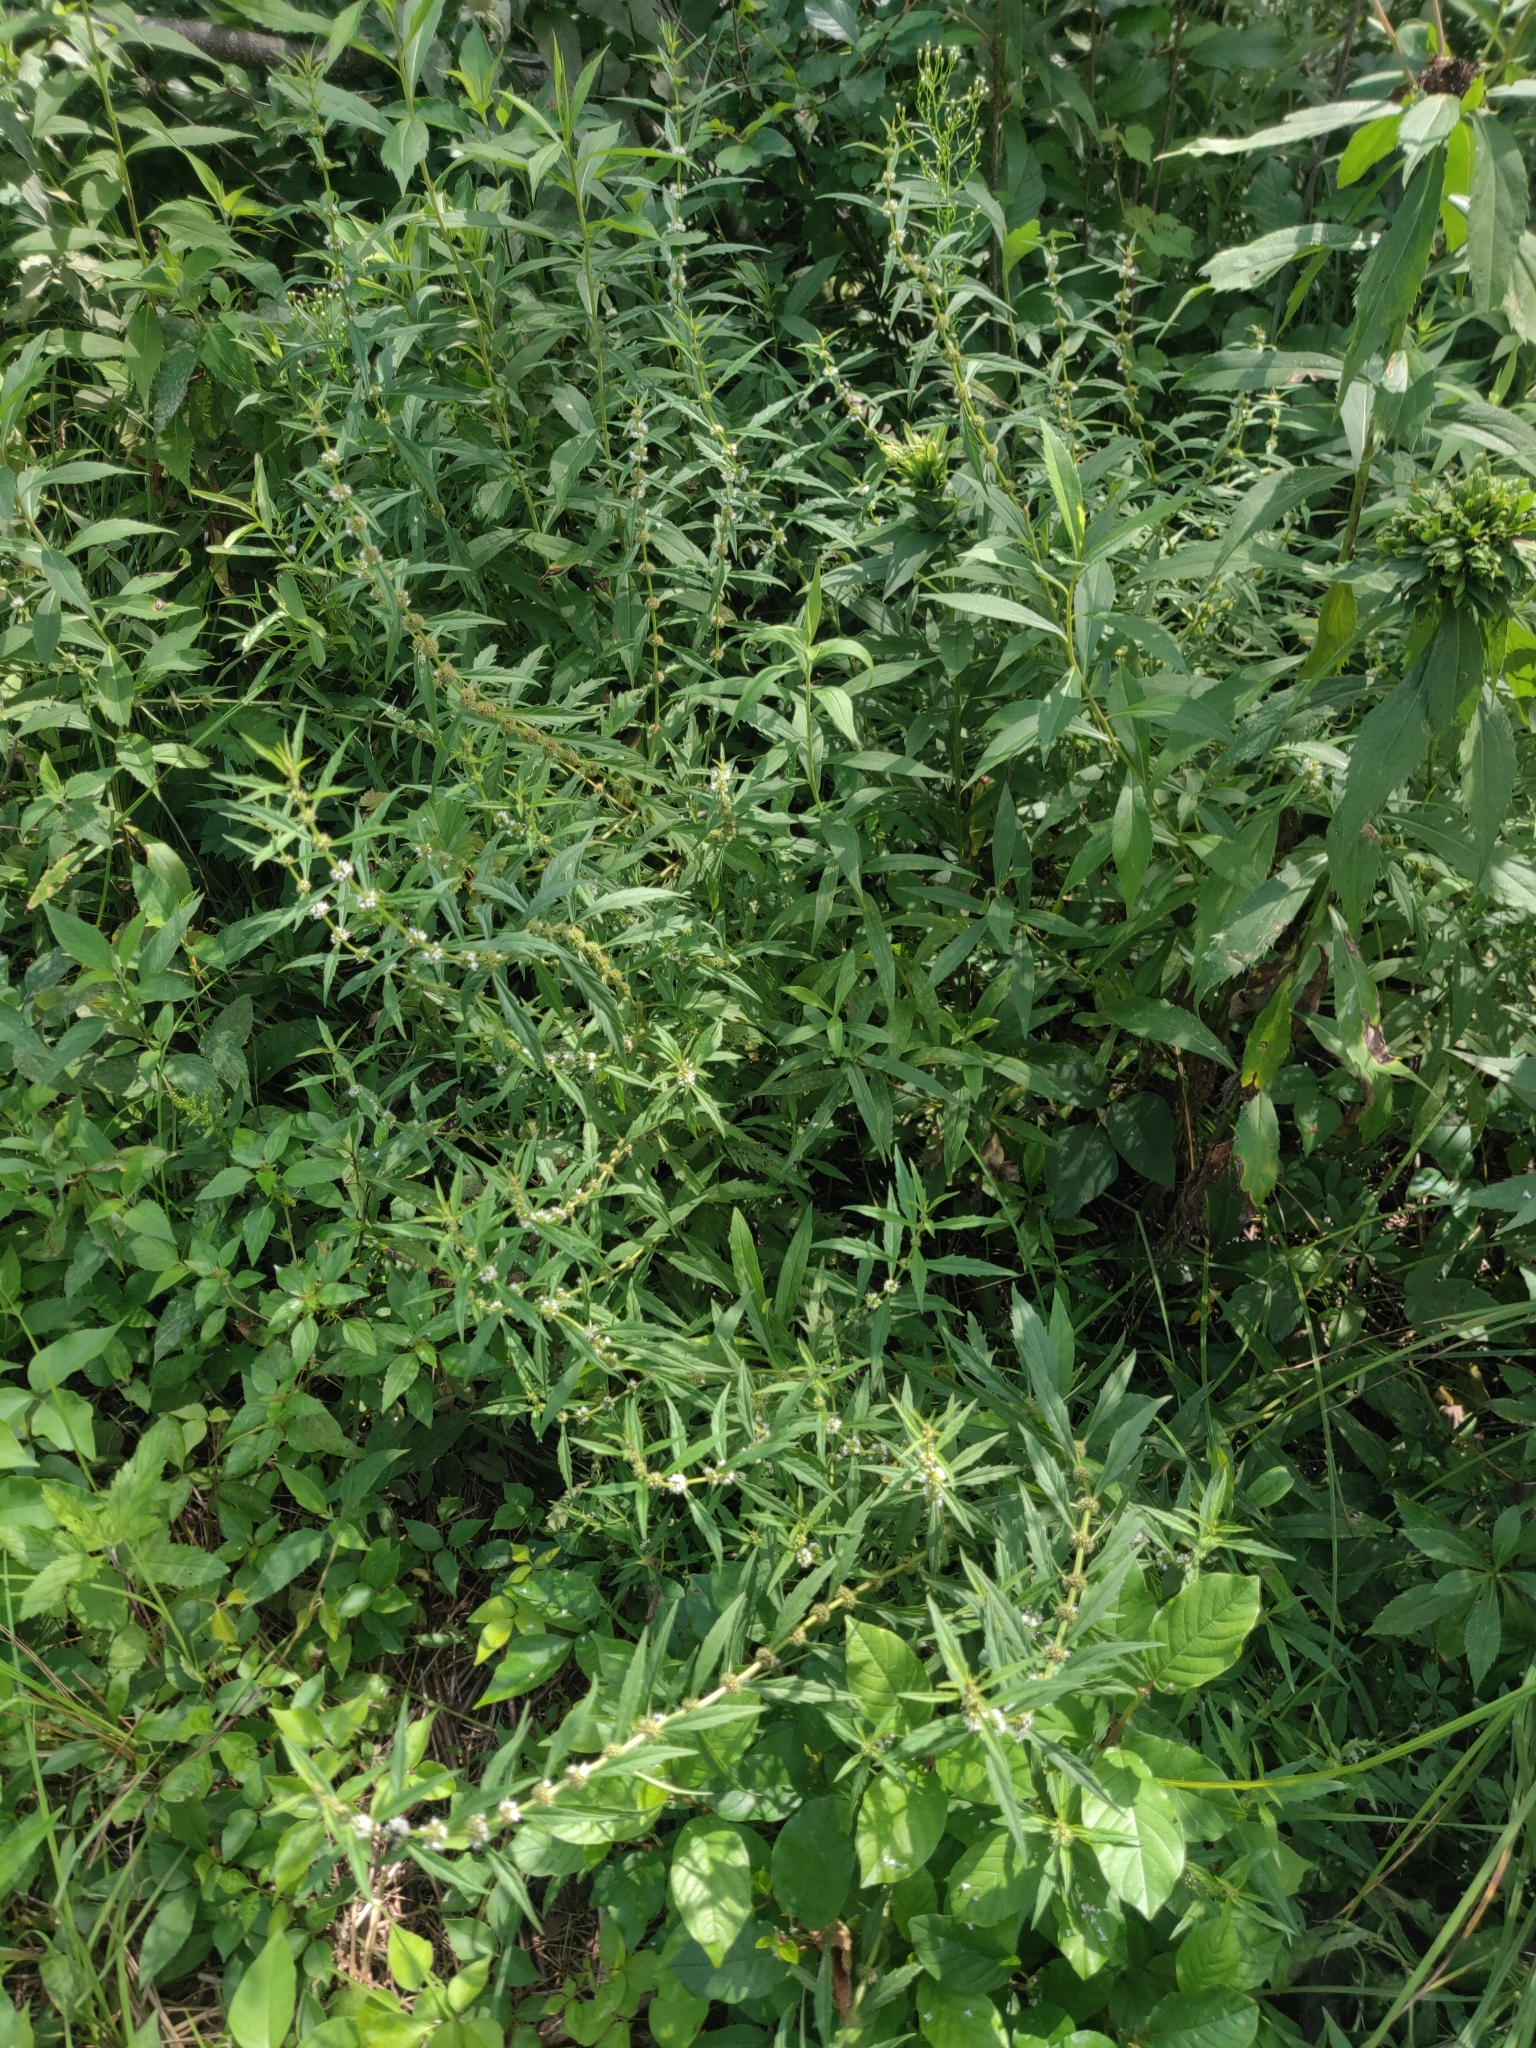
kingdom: Plantae
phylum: Tracheophyta
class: Magnoliopsida
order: Lamiales
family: Lamiaceae
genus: Lycopus
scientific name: Lycopus americanus
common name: American bugleweed
